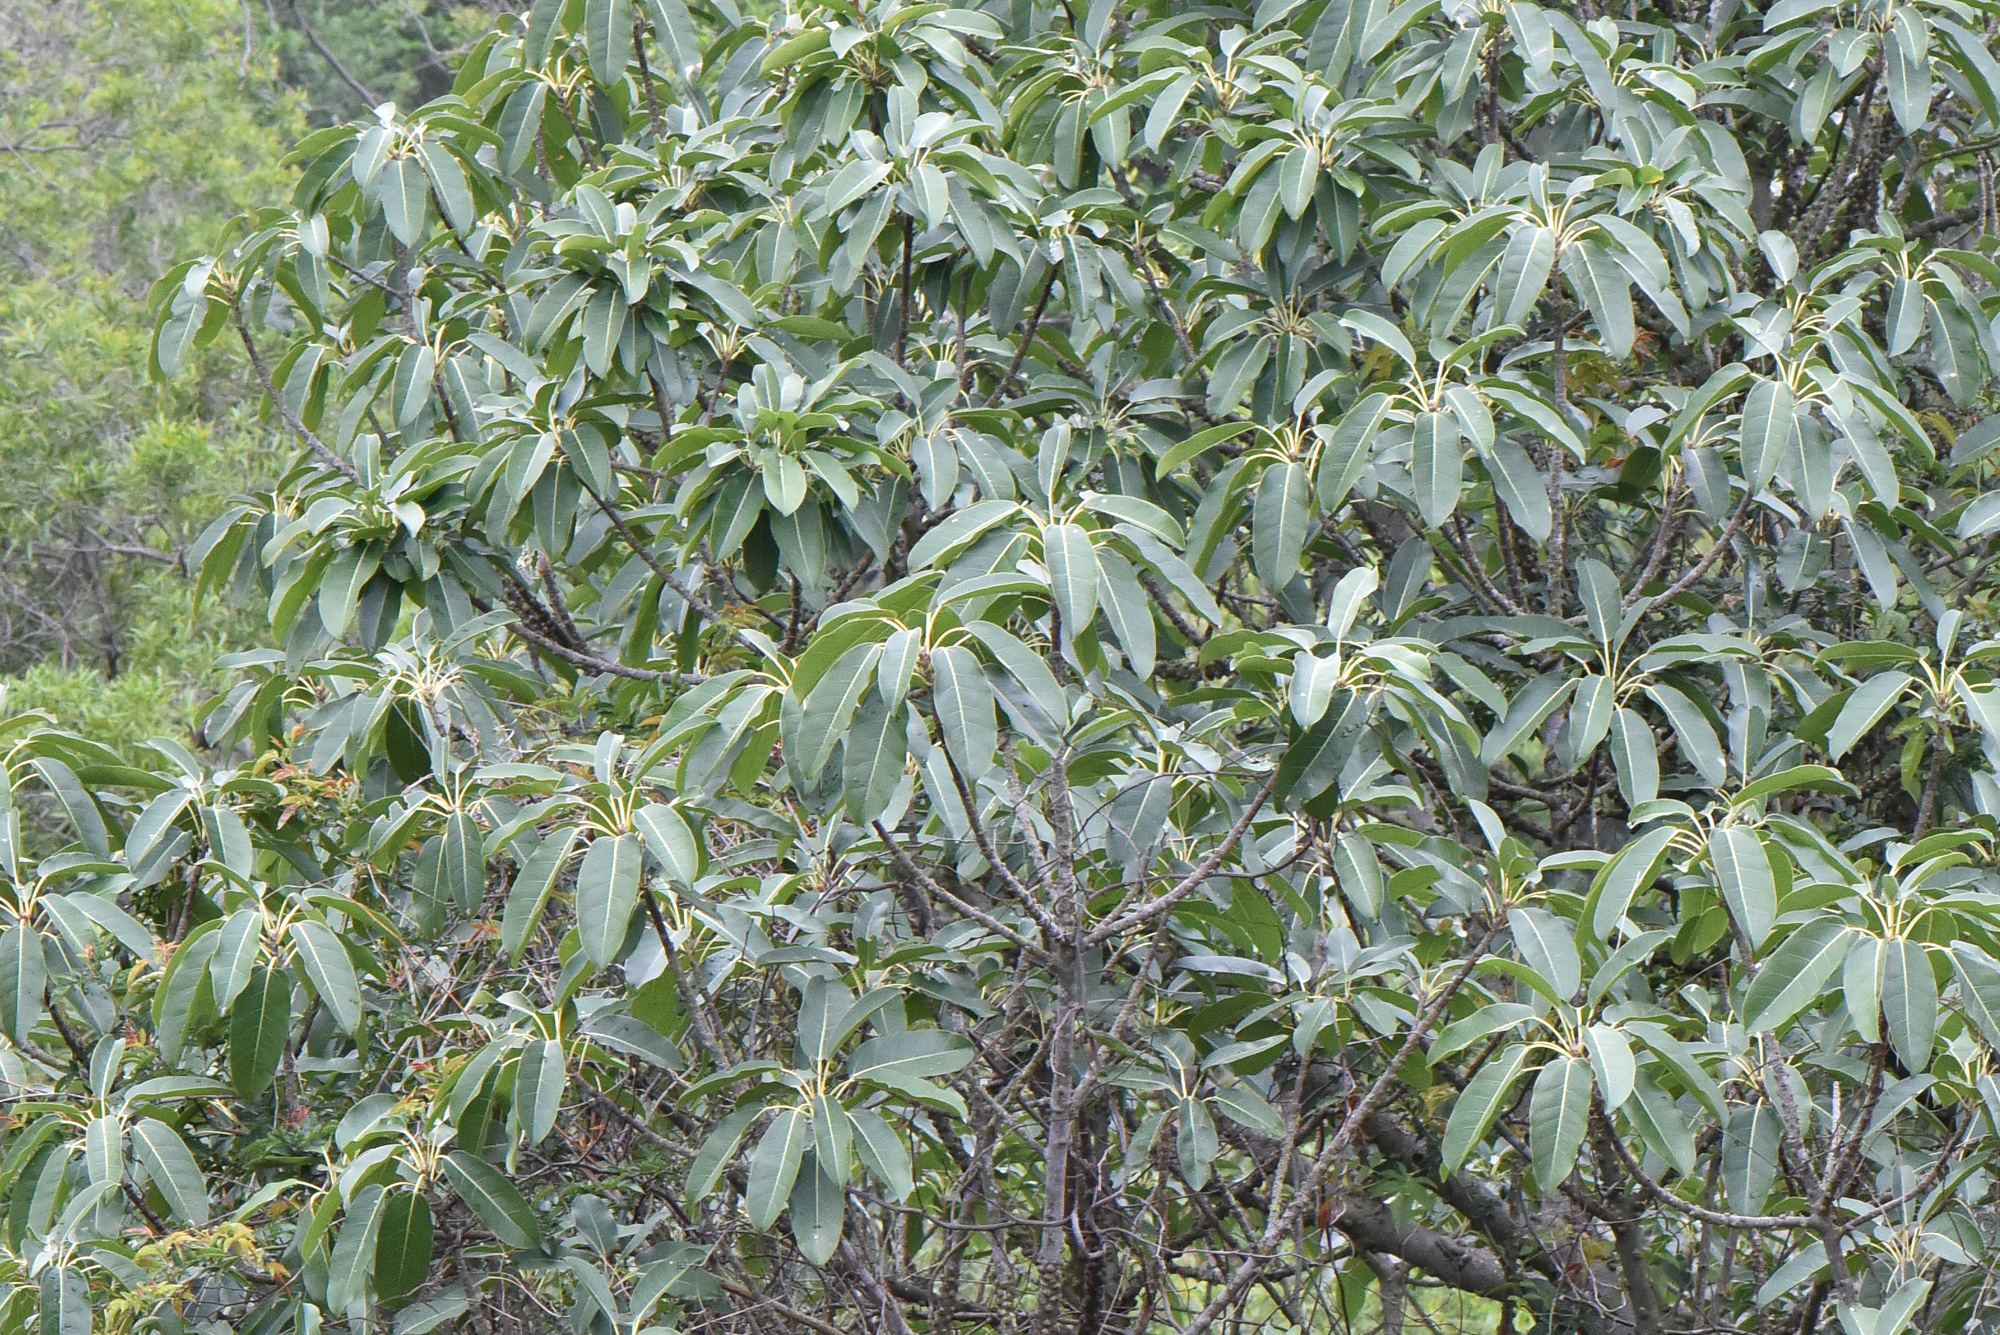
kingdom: Plantae
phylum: Tracheophyta
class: Magnoliopsida
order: Rosales
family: Moraceae
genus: Ficus
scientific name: Ficus subpisocarpa
